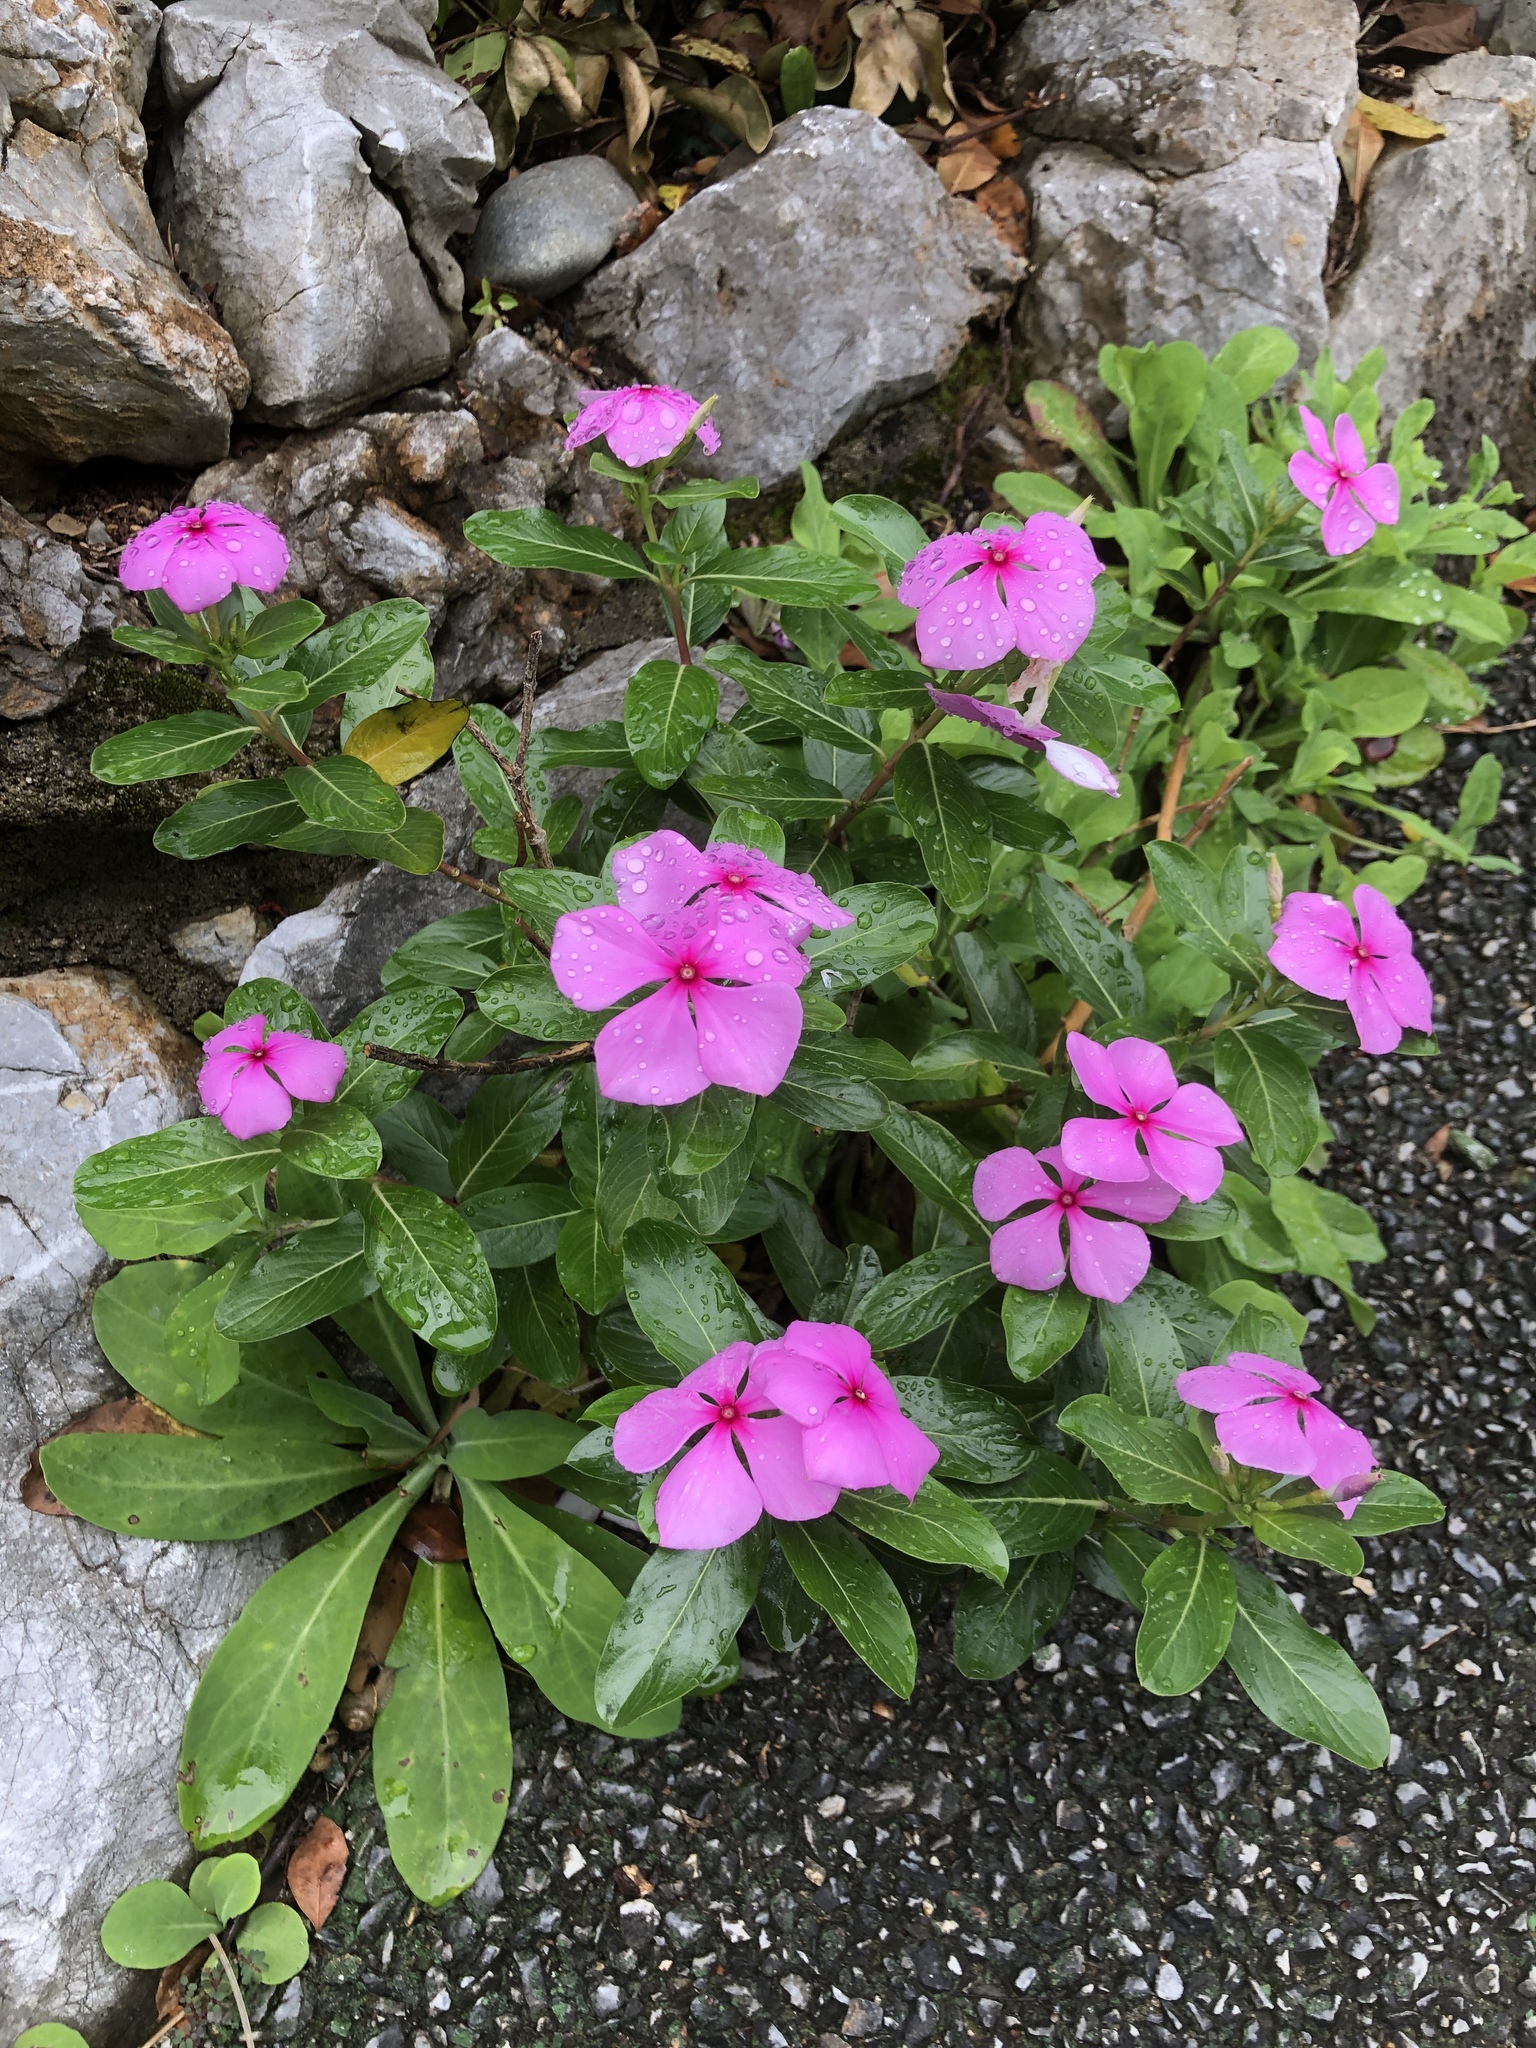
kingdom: Plantae
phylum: Tracheophyta
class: Magnoliopsida
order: Gentianales
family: Apocynaceae
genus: Catharanthus
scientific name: Catharanthus roseus
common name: Madagascar periwinkle
